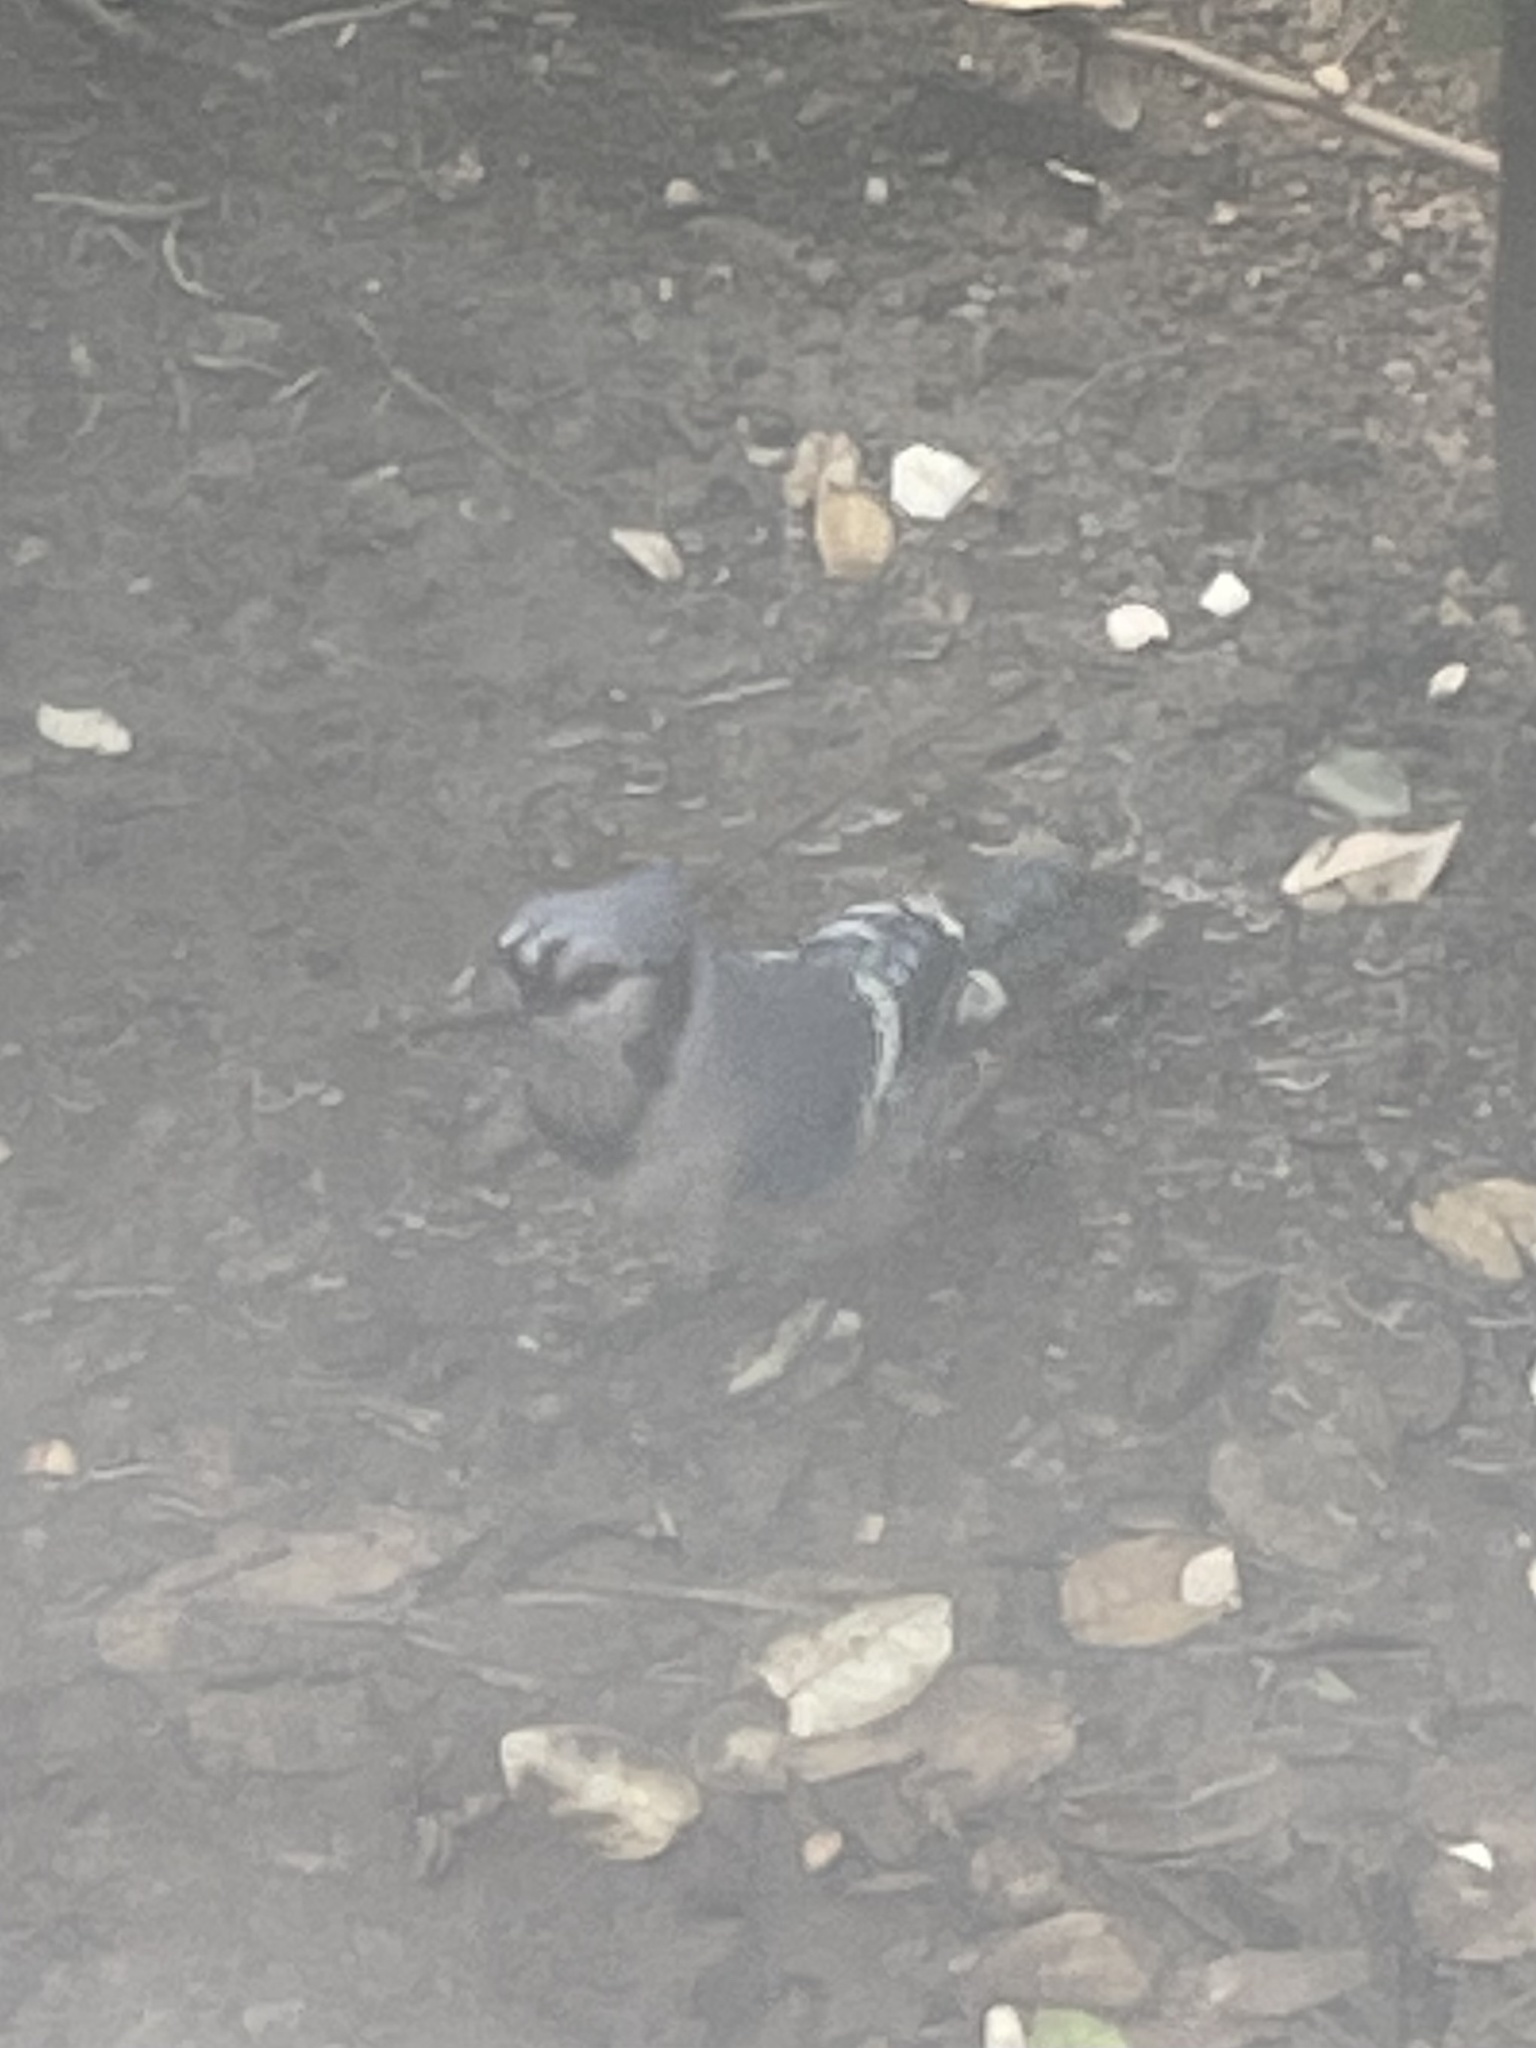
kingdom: Animalia
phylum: Chordata
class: Aves
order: Passeriformes
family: Corvidae
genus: Cyanocitta
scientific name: Cyanocitta cristata
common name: Blue jay
